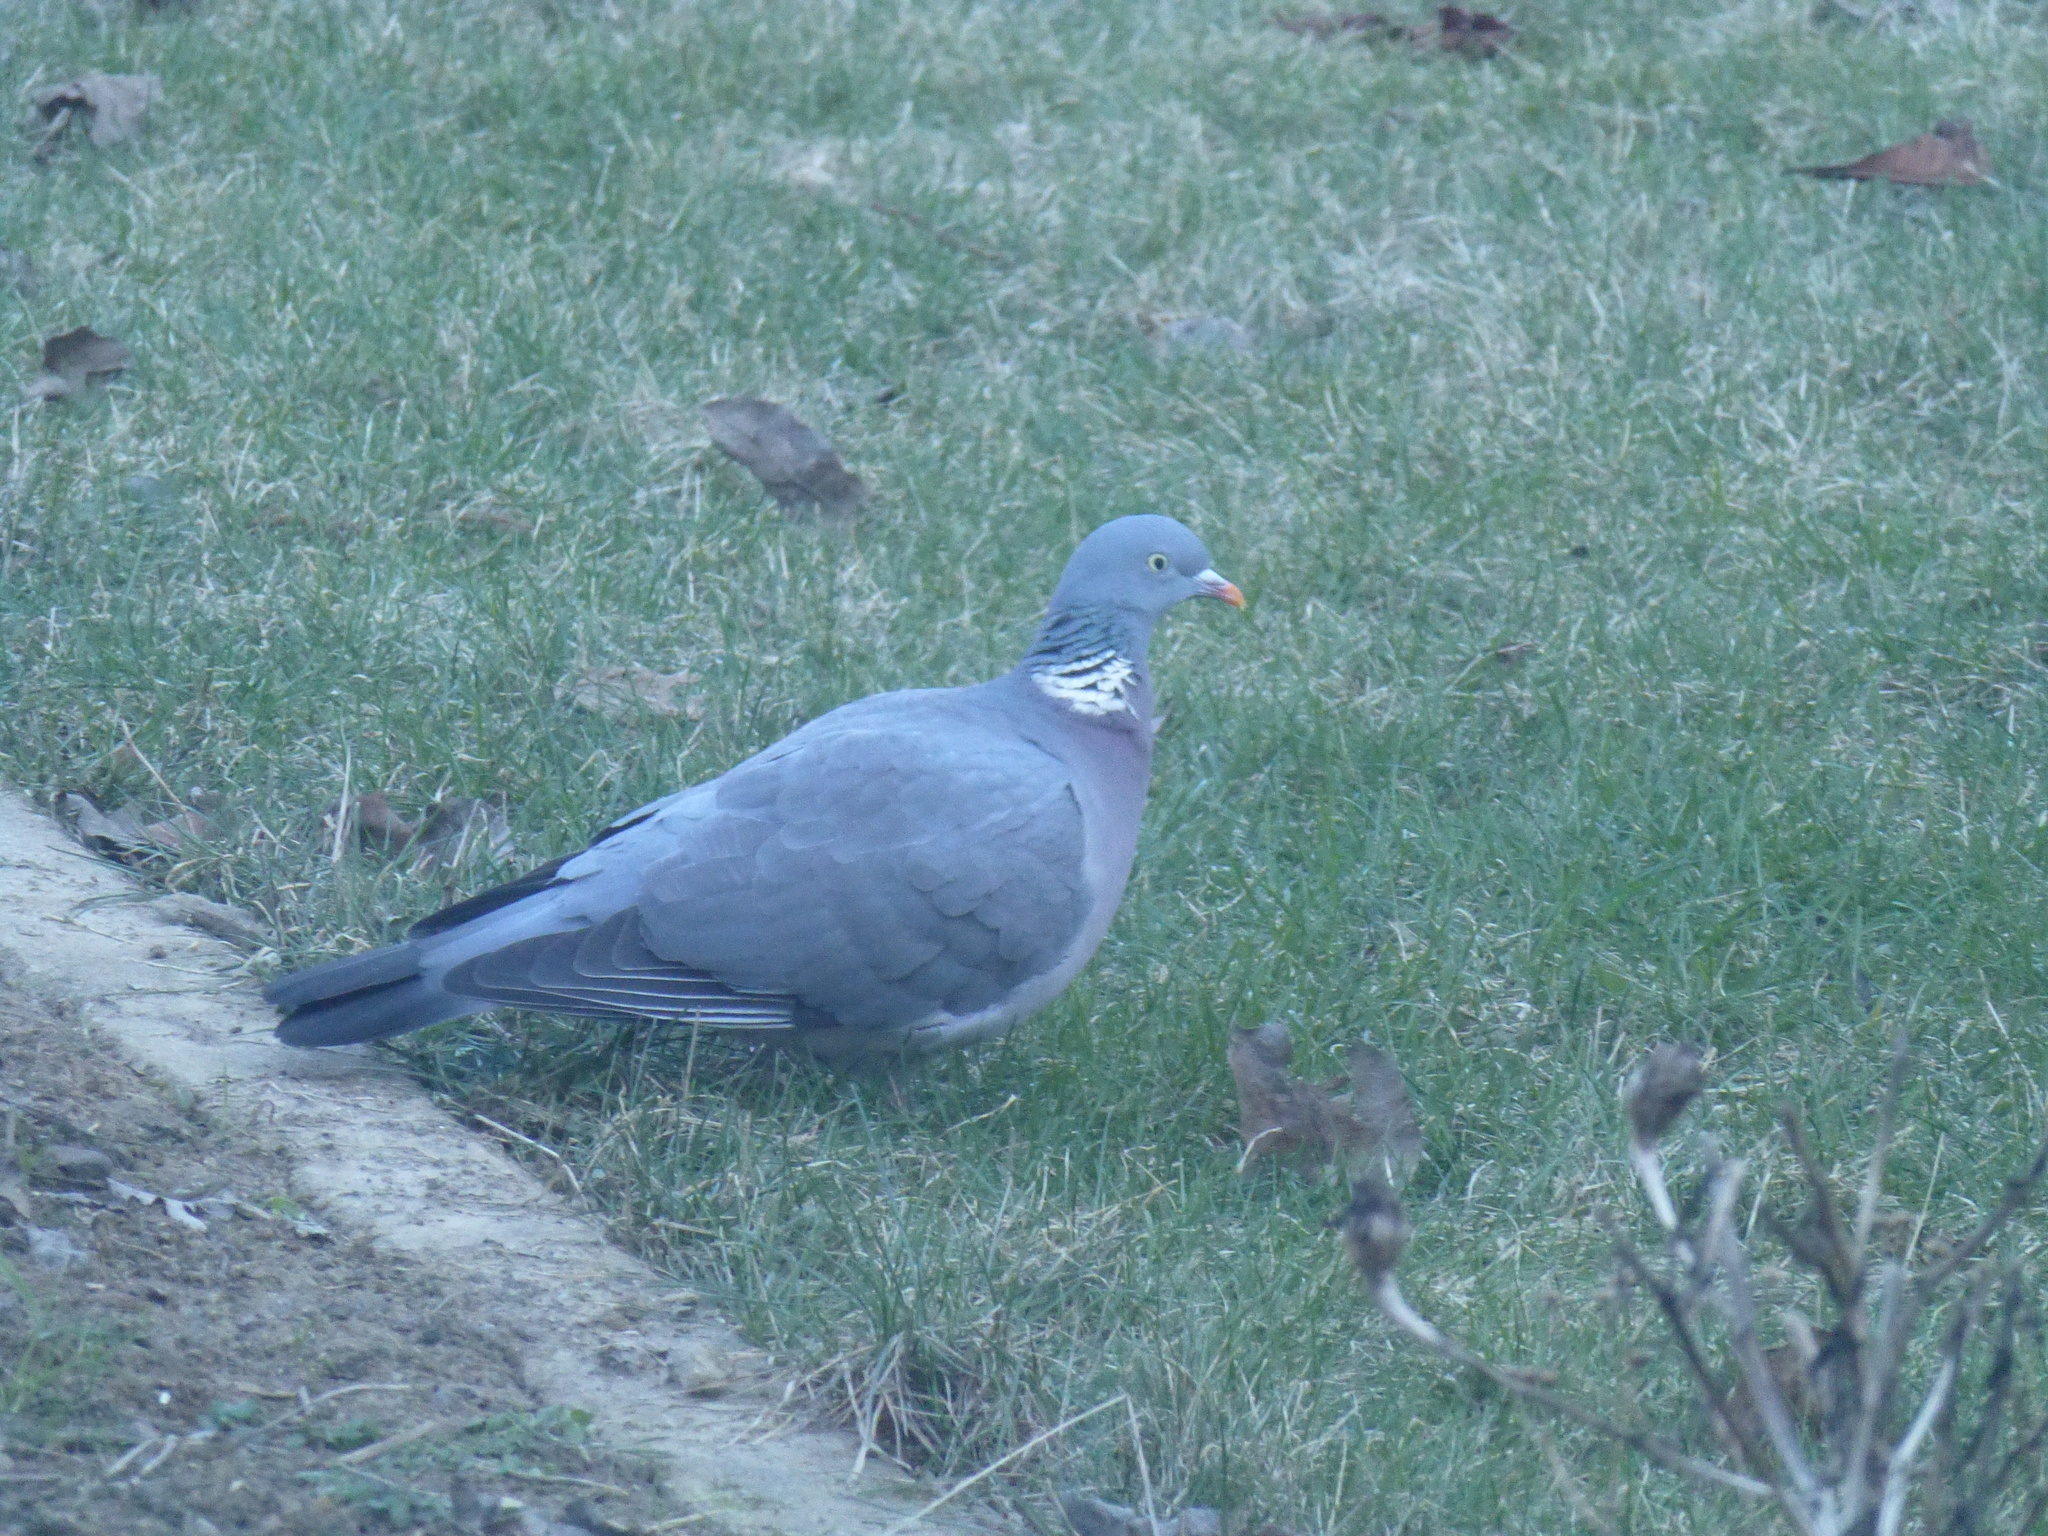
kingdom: Animalia
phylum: Chordata
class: Aves
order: Columbiformes
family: Columbidae
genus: Columba
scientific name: Columba palumbus
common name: Common wood pigeon
